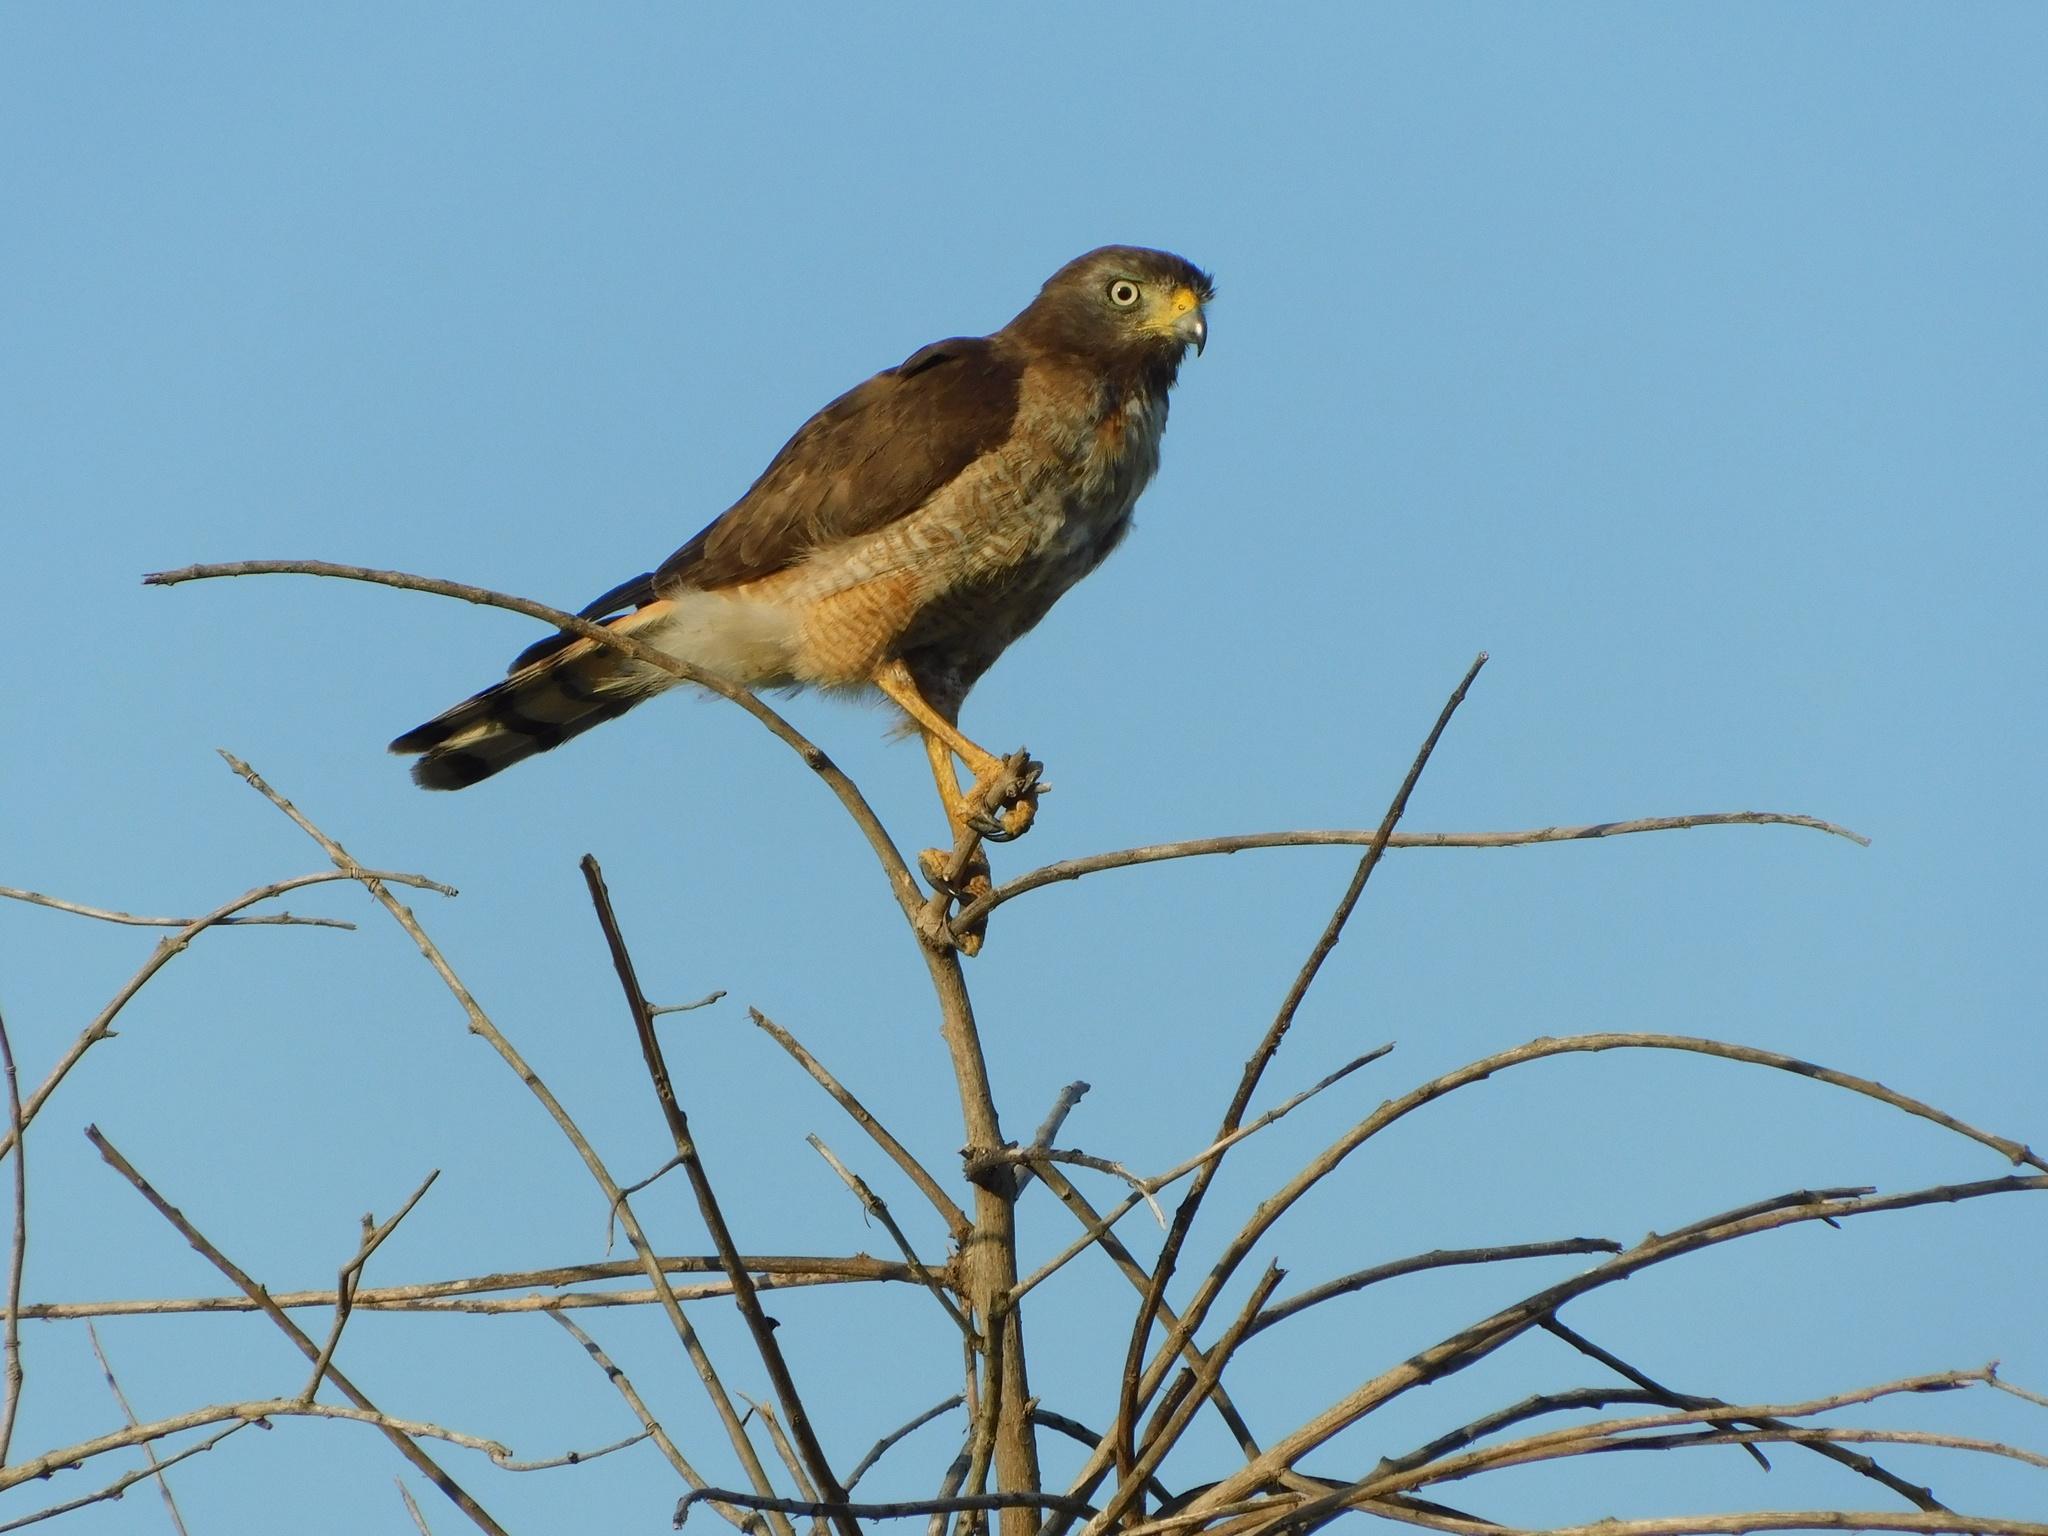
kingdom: Animalia
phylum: Chordata
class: Aves
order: Accipitriformes
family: Accipitridae
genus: Rupornis
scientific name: Rupornis magnirostris
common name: Roadside hawk
